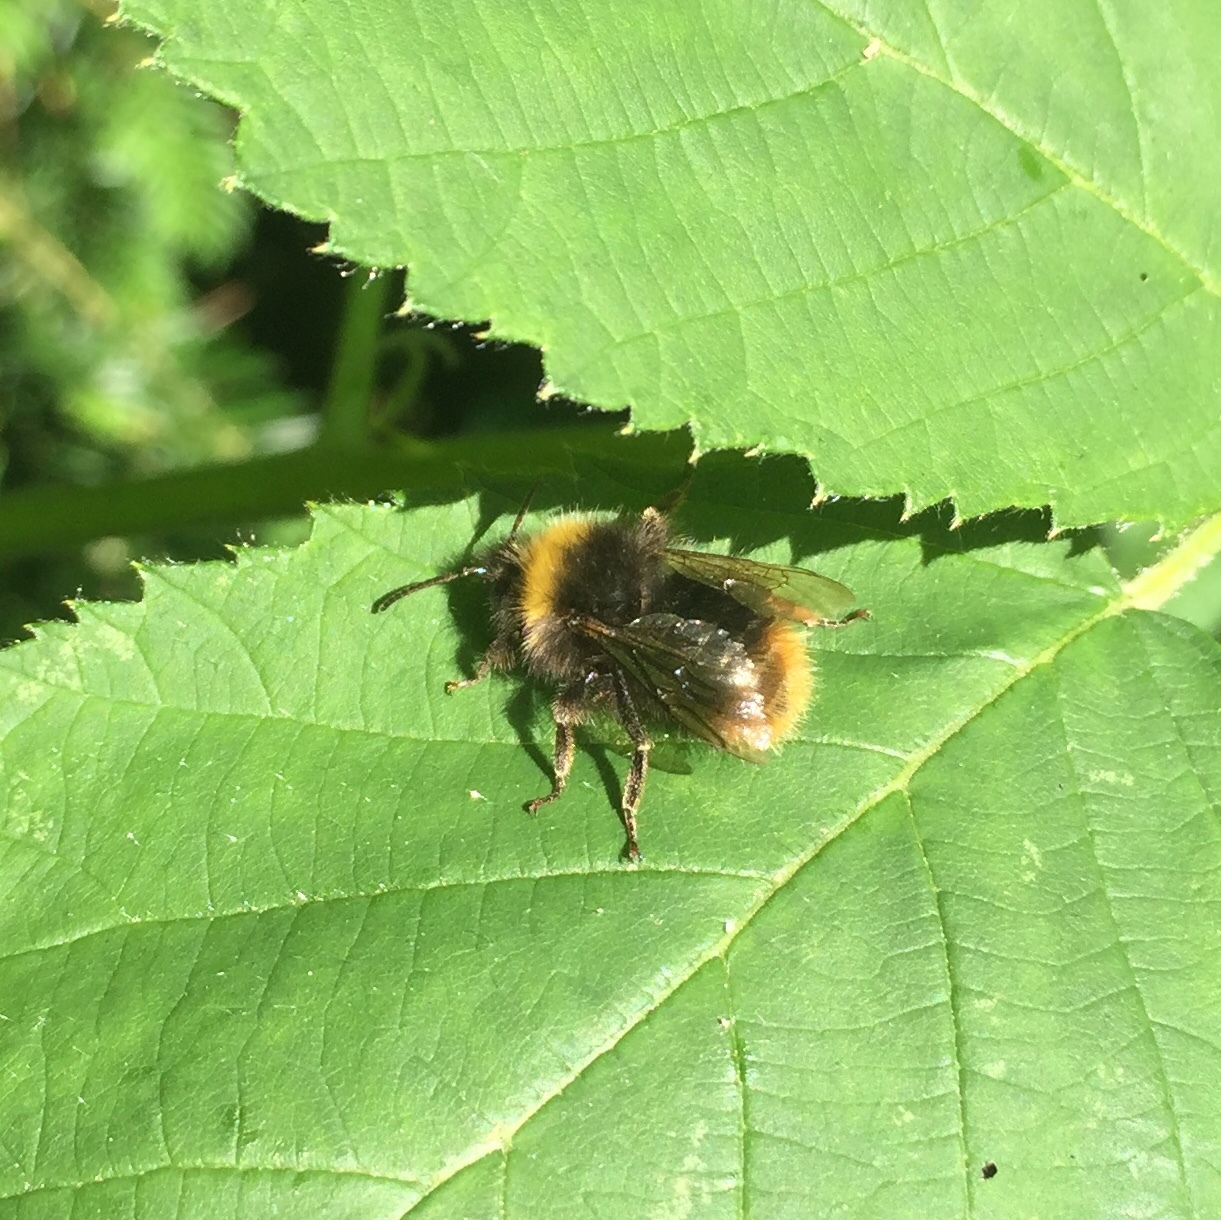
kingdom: Animalia
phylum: Arthropoda
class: Insecta
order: Hymenoptera
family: Apidae
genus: Bombus
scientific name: Bombus pratorum
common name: Early humble-bee
